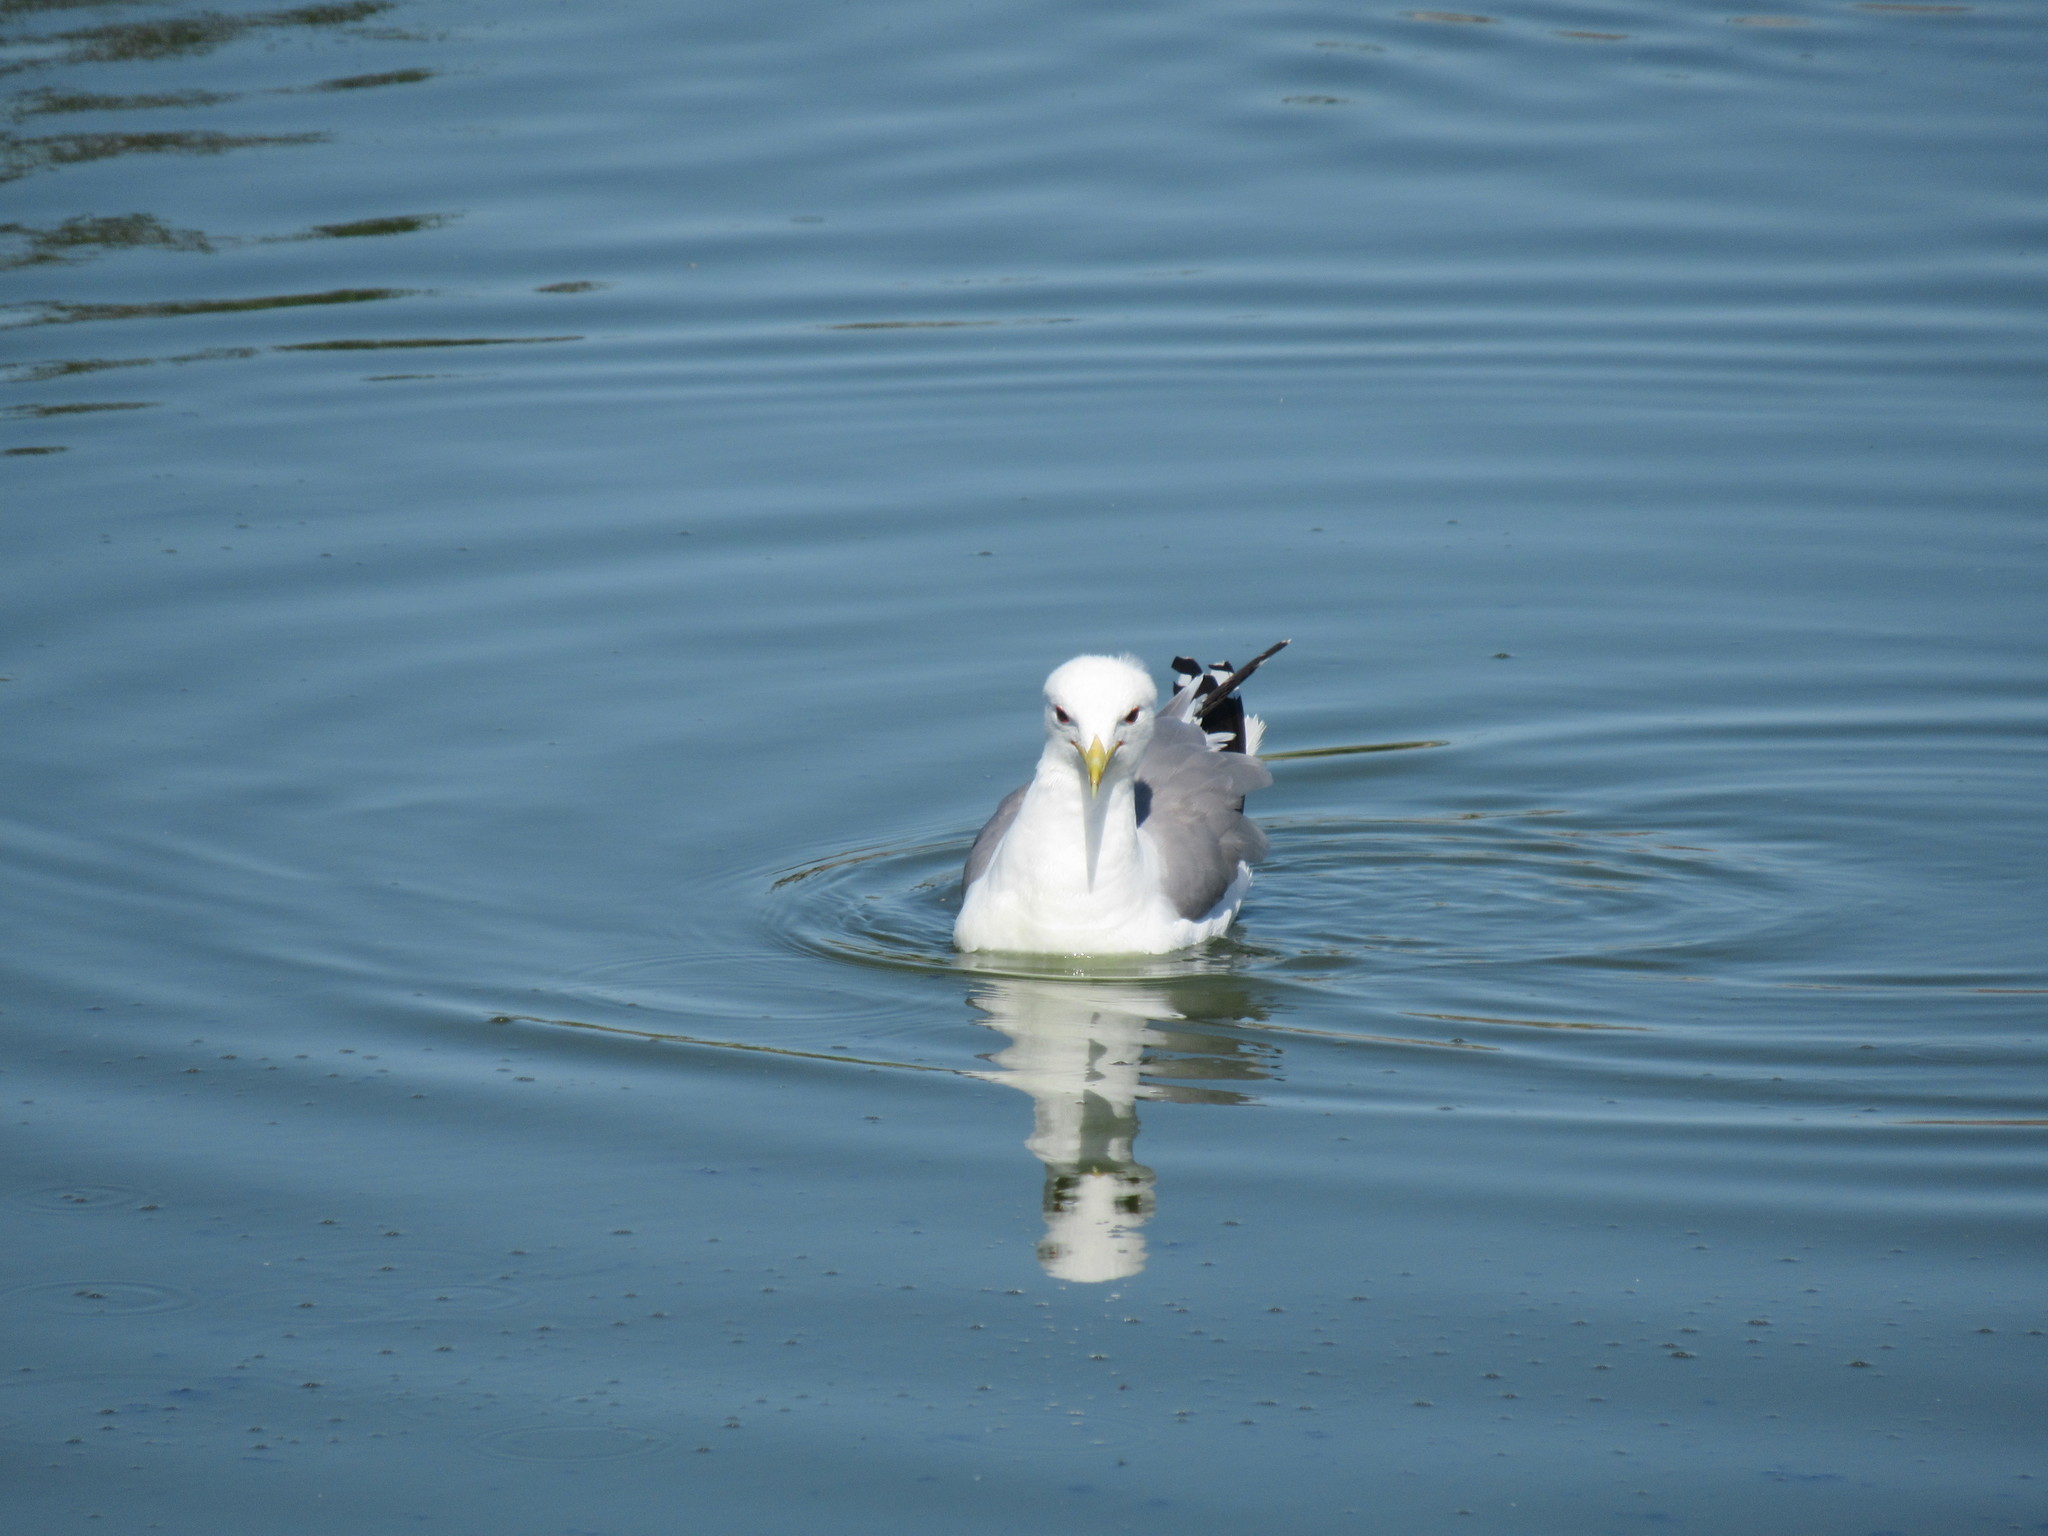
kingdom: Animalia
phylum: Chordata
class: Aves
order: Charadriiformes
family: Laridae
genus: Larus
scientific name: Larus californicus
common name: California gull
